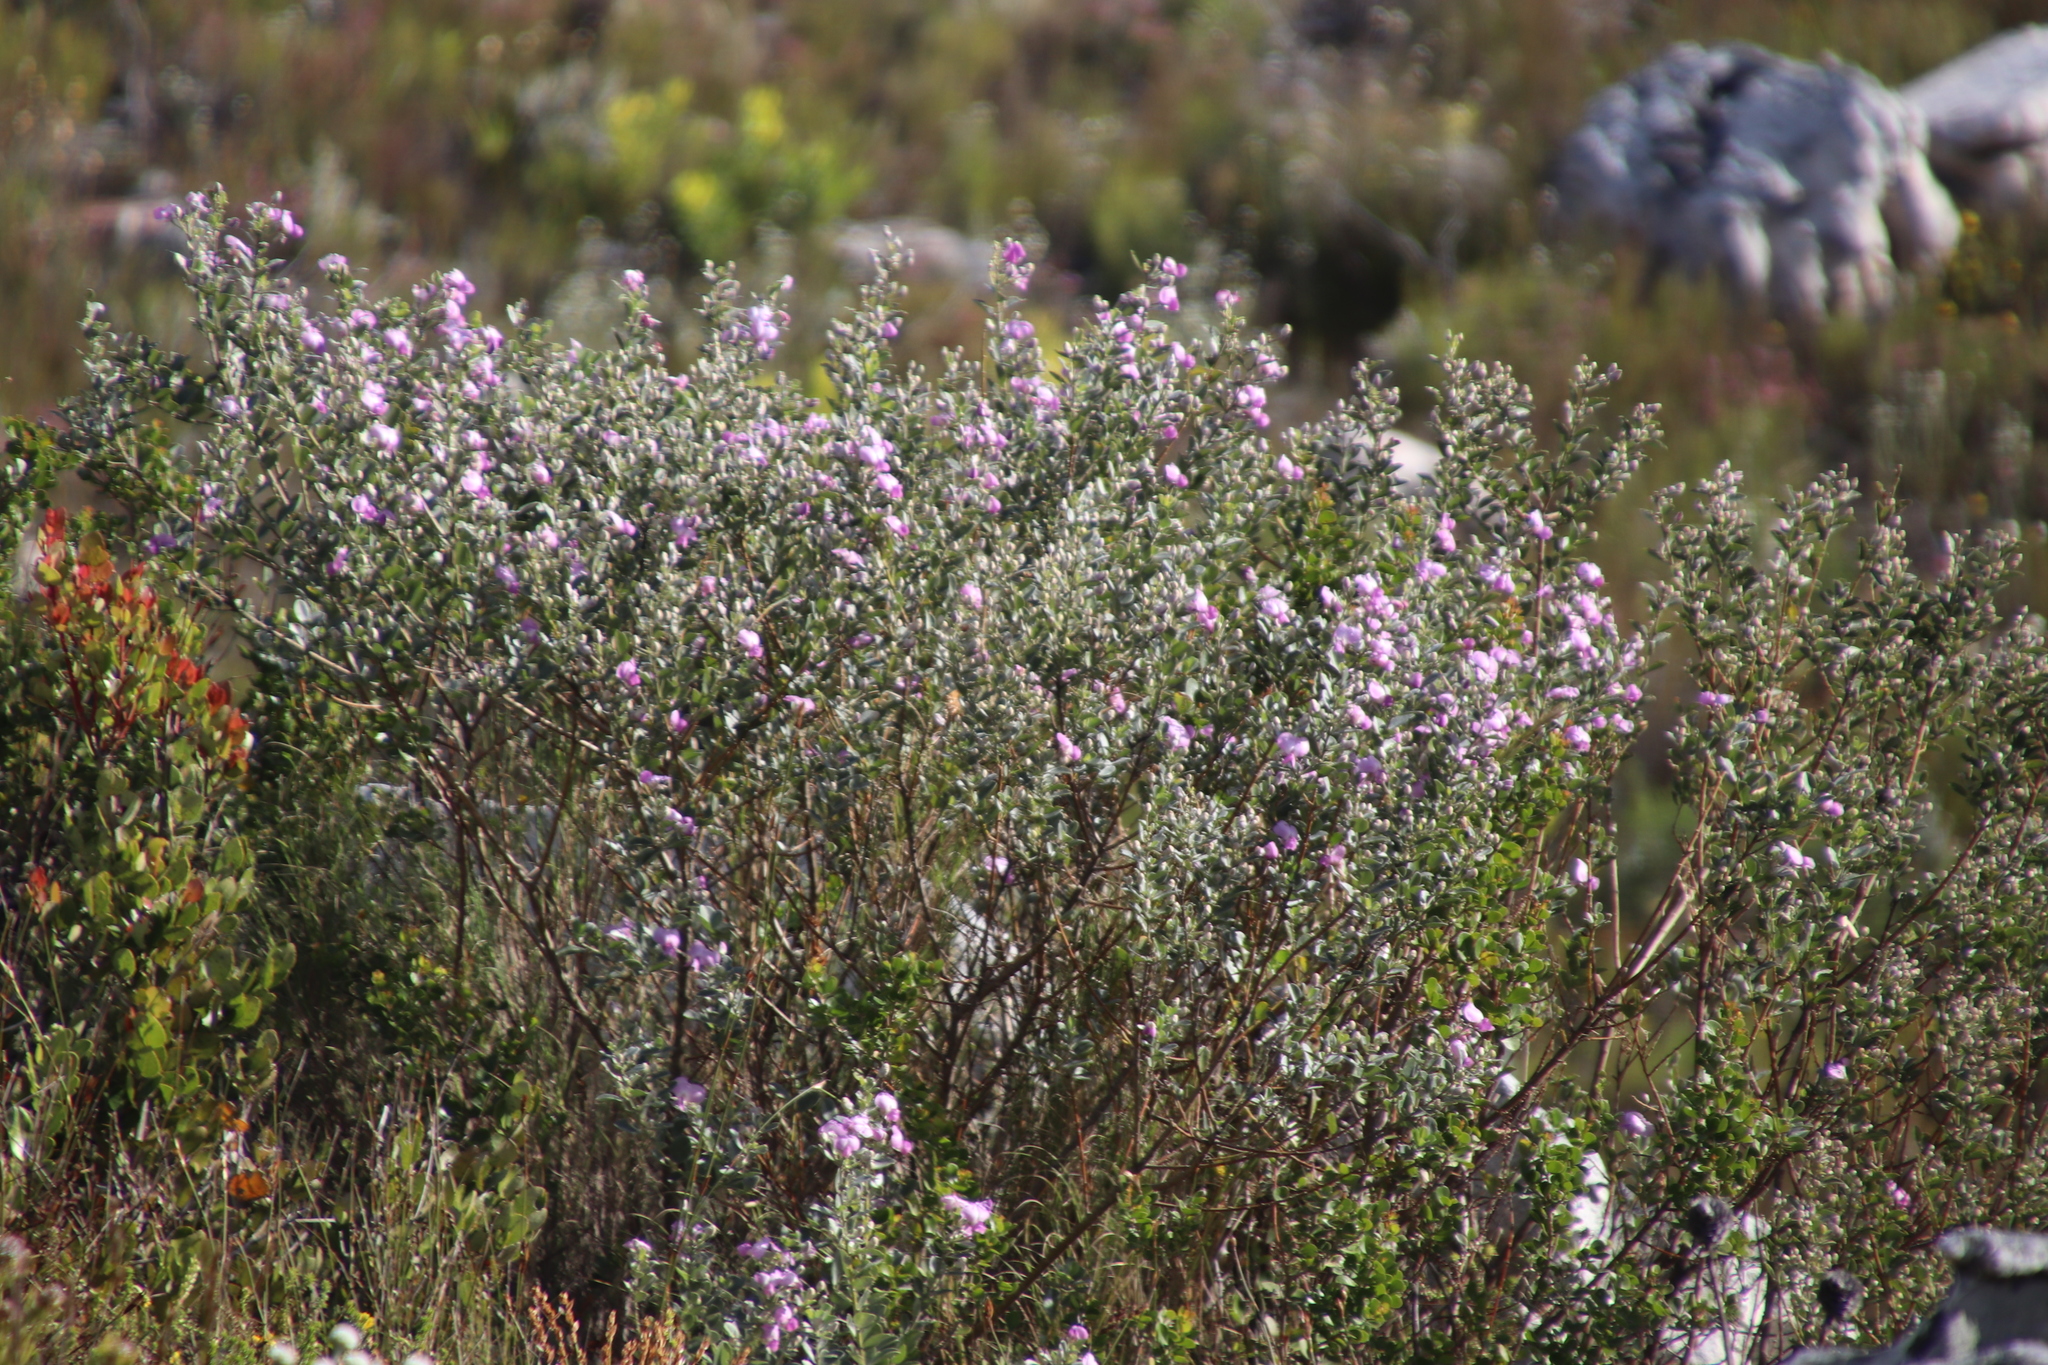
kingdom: Plantae
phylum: Tracheophyta
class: Magnoliopsida
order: Fabales
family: Fabaceae
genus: Podalyria
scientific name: Podalyria calyptrata
